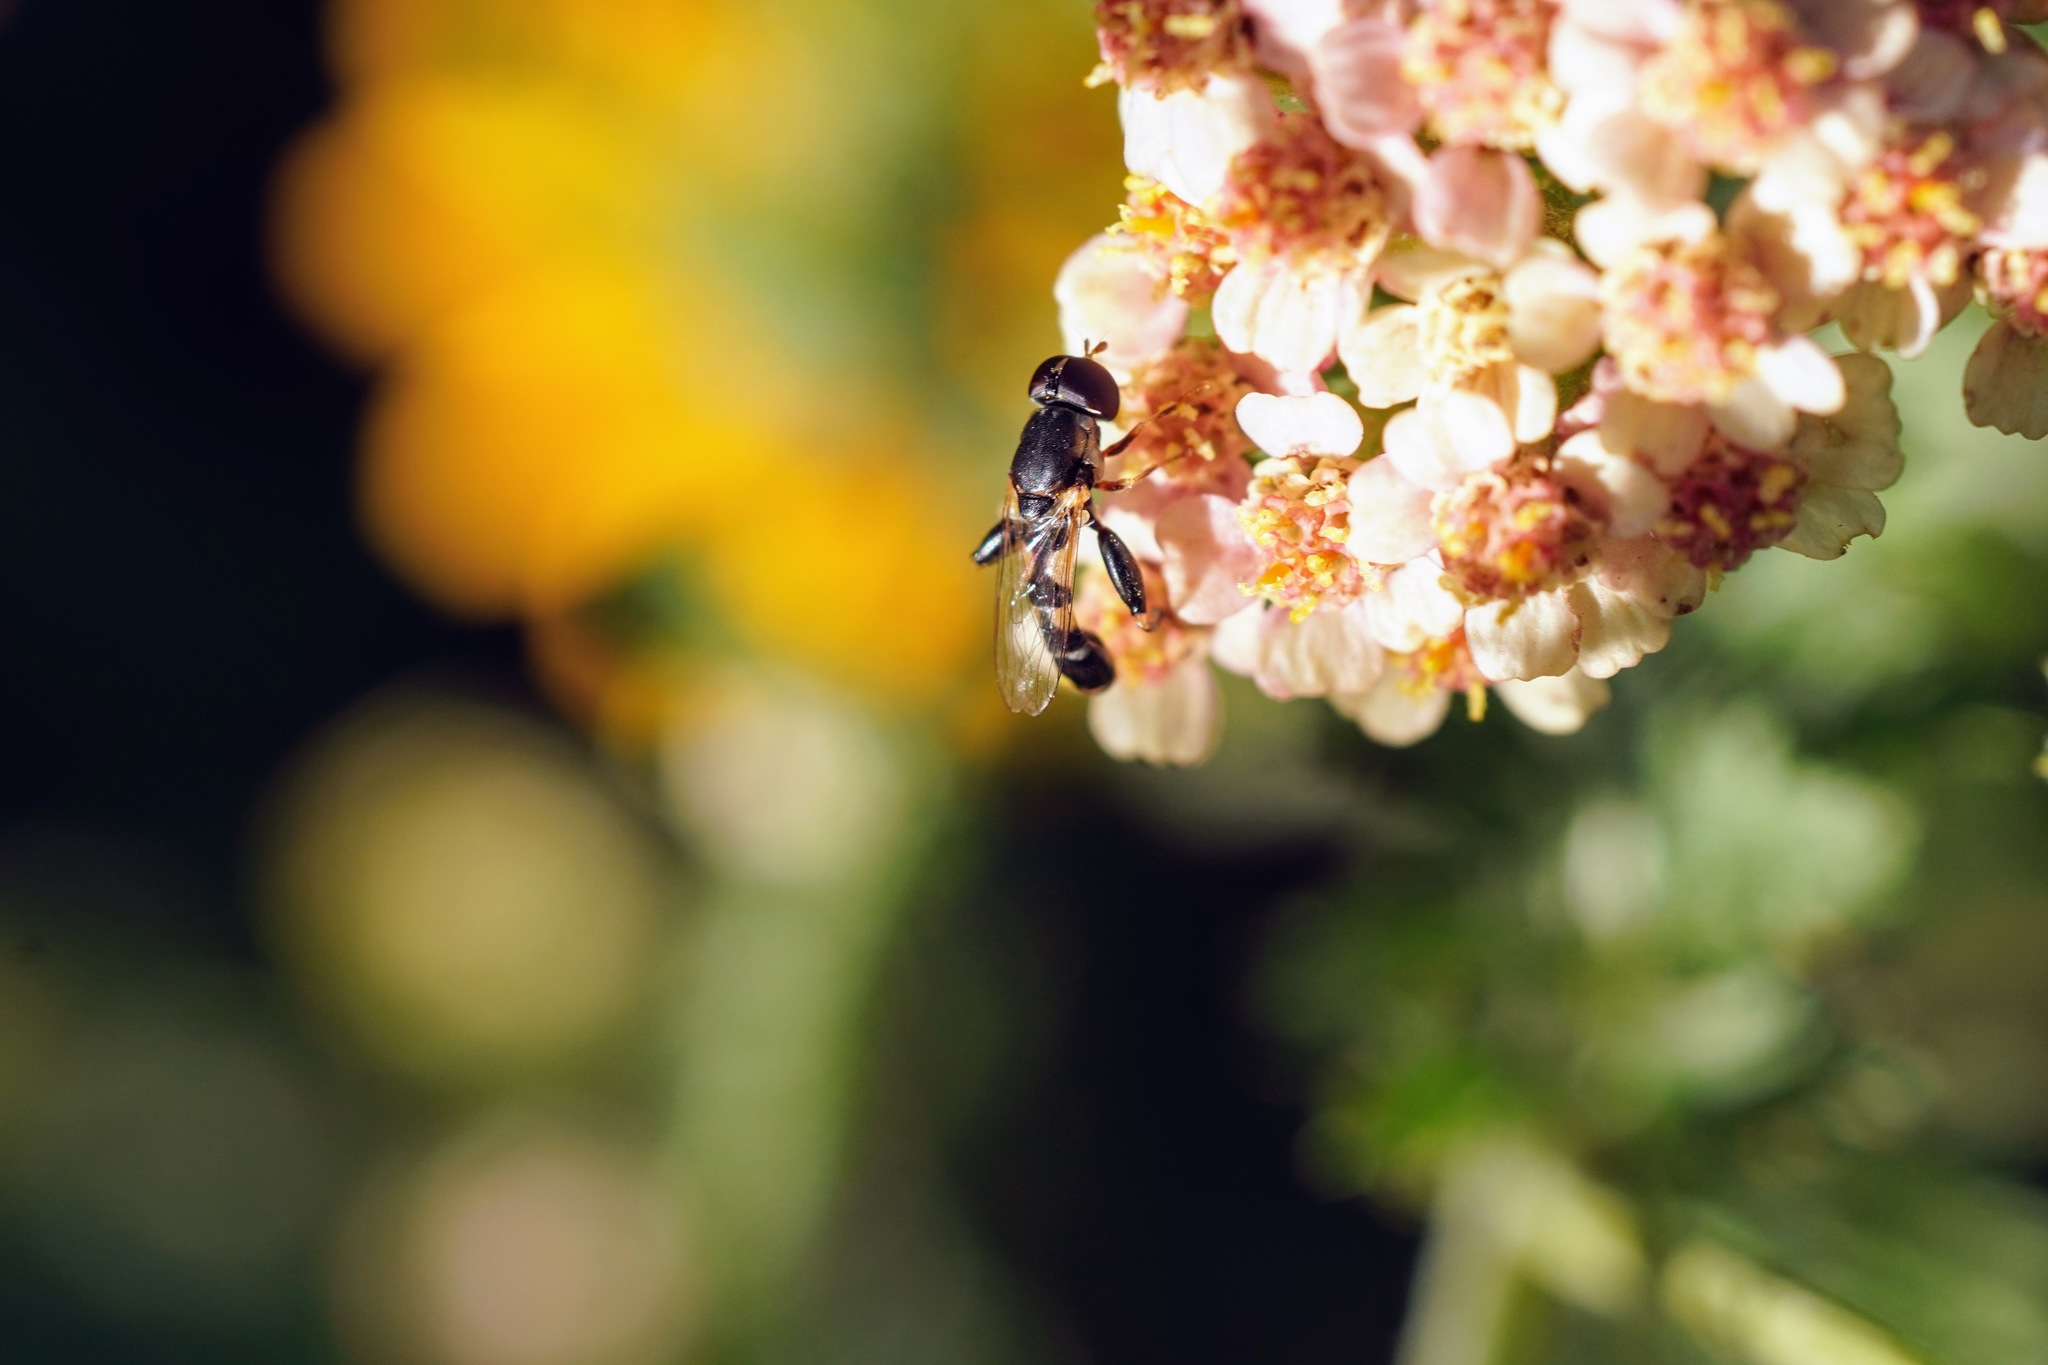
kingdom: Animalia
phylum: Arthropoda
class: Insecta
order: Diptera
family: Syrphidae
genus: Syritta
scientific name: Syritta pipiens
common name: Hover fly
